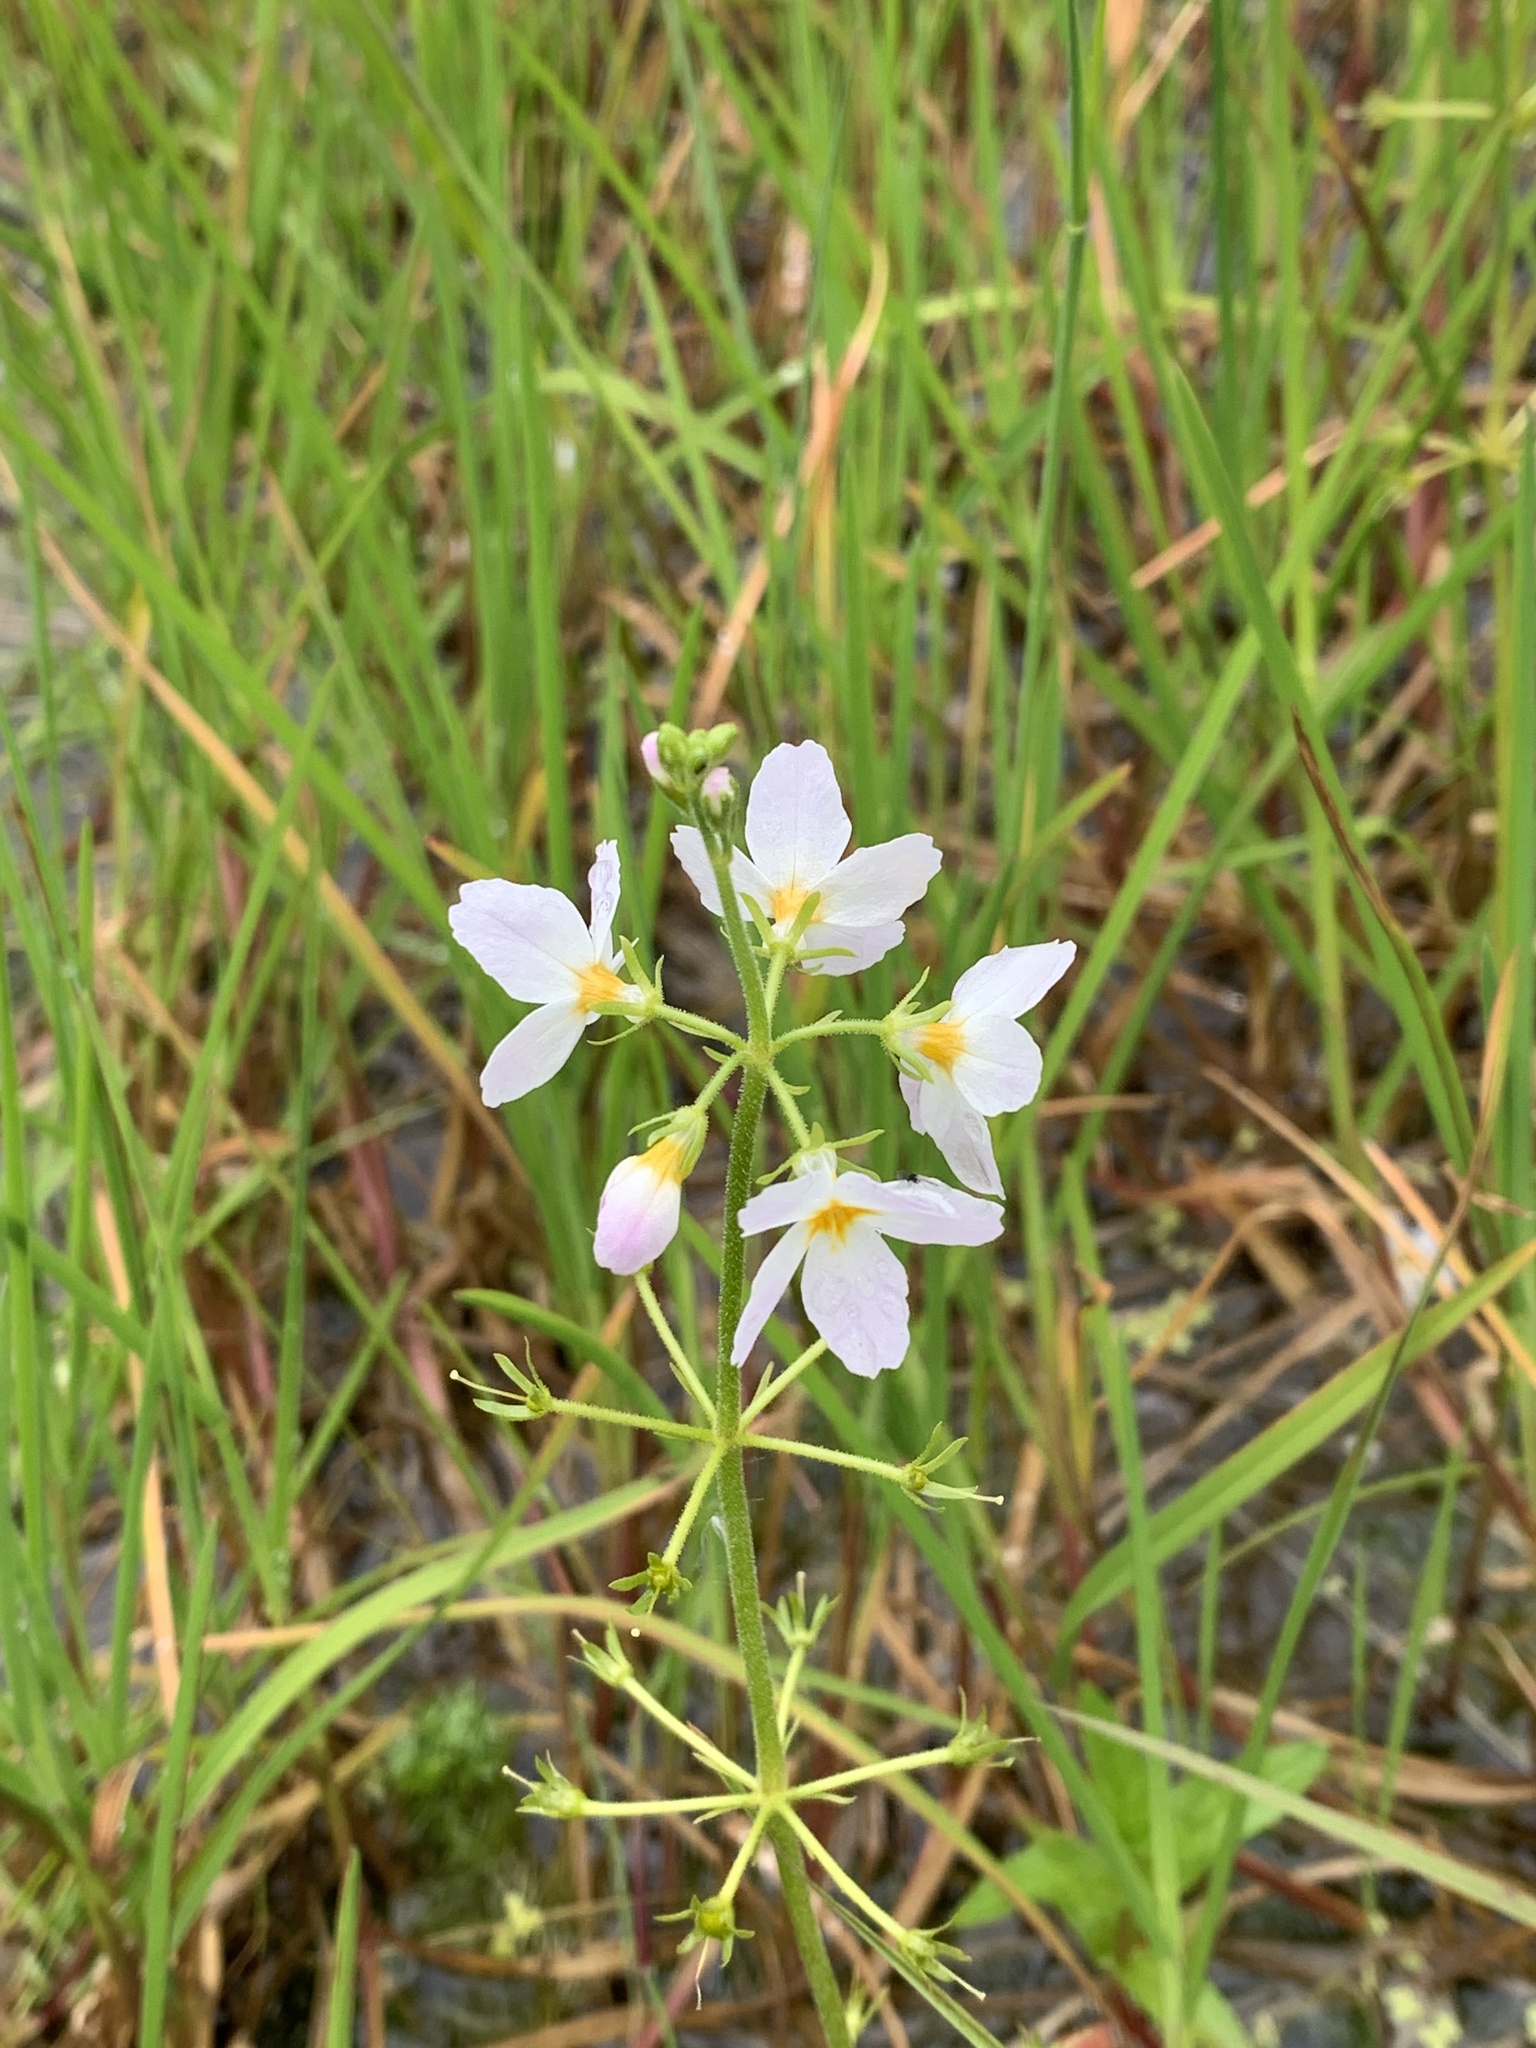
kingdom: Plantae
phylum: Tracheophyta
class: Magnoliopsida
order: Ericales
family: Primulaceae
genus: Hottonia
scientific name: Hottonia palustris
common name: Water-violet
